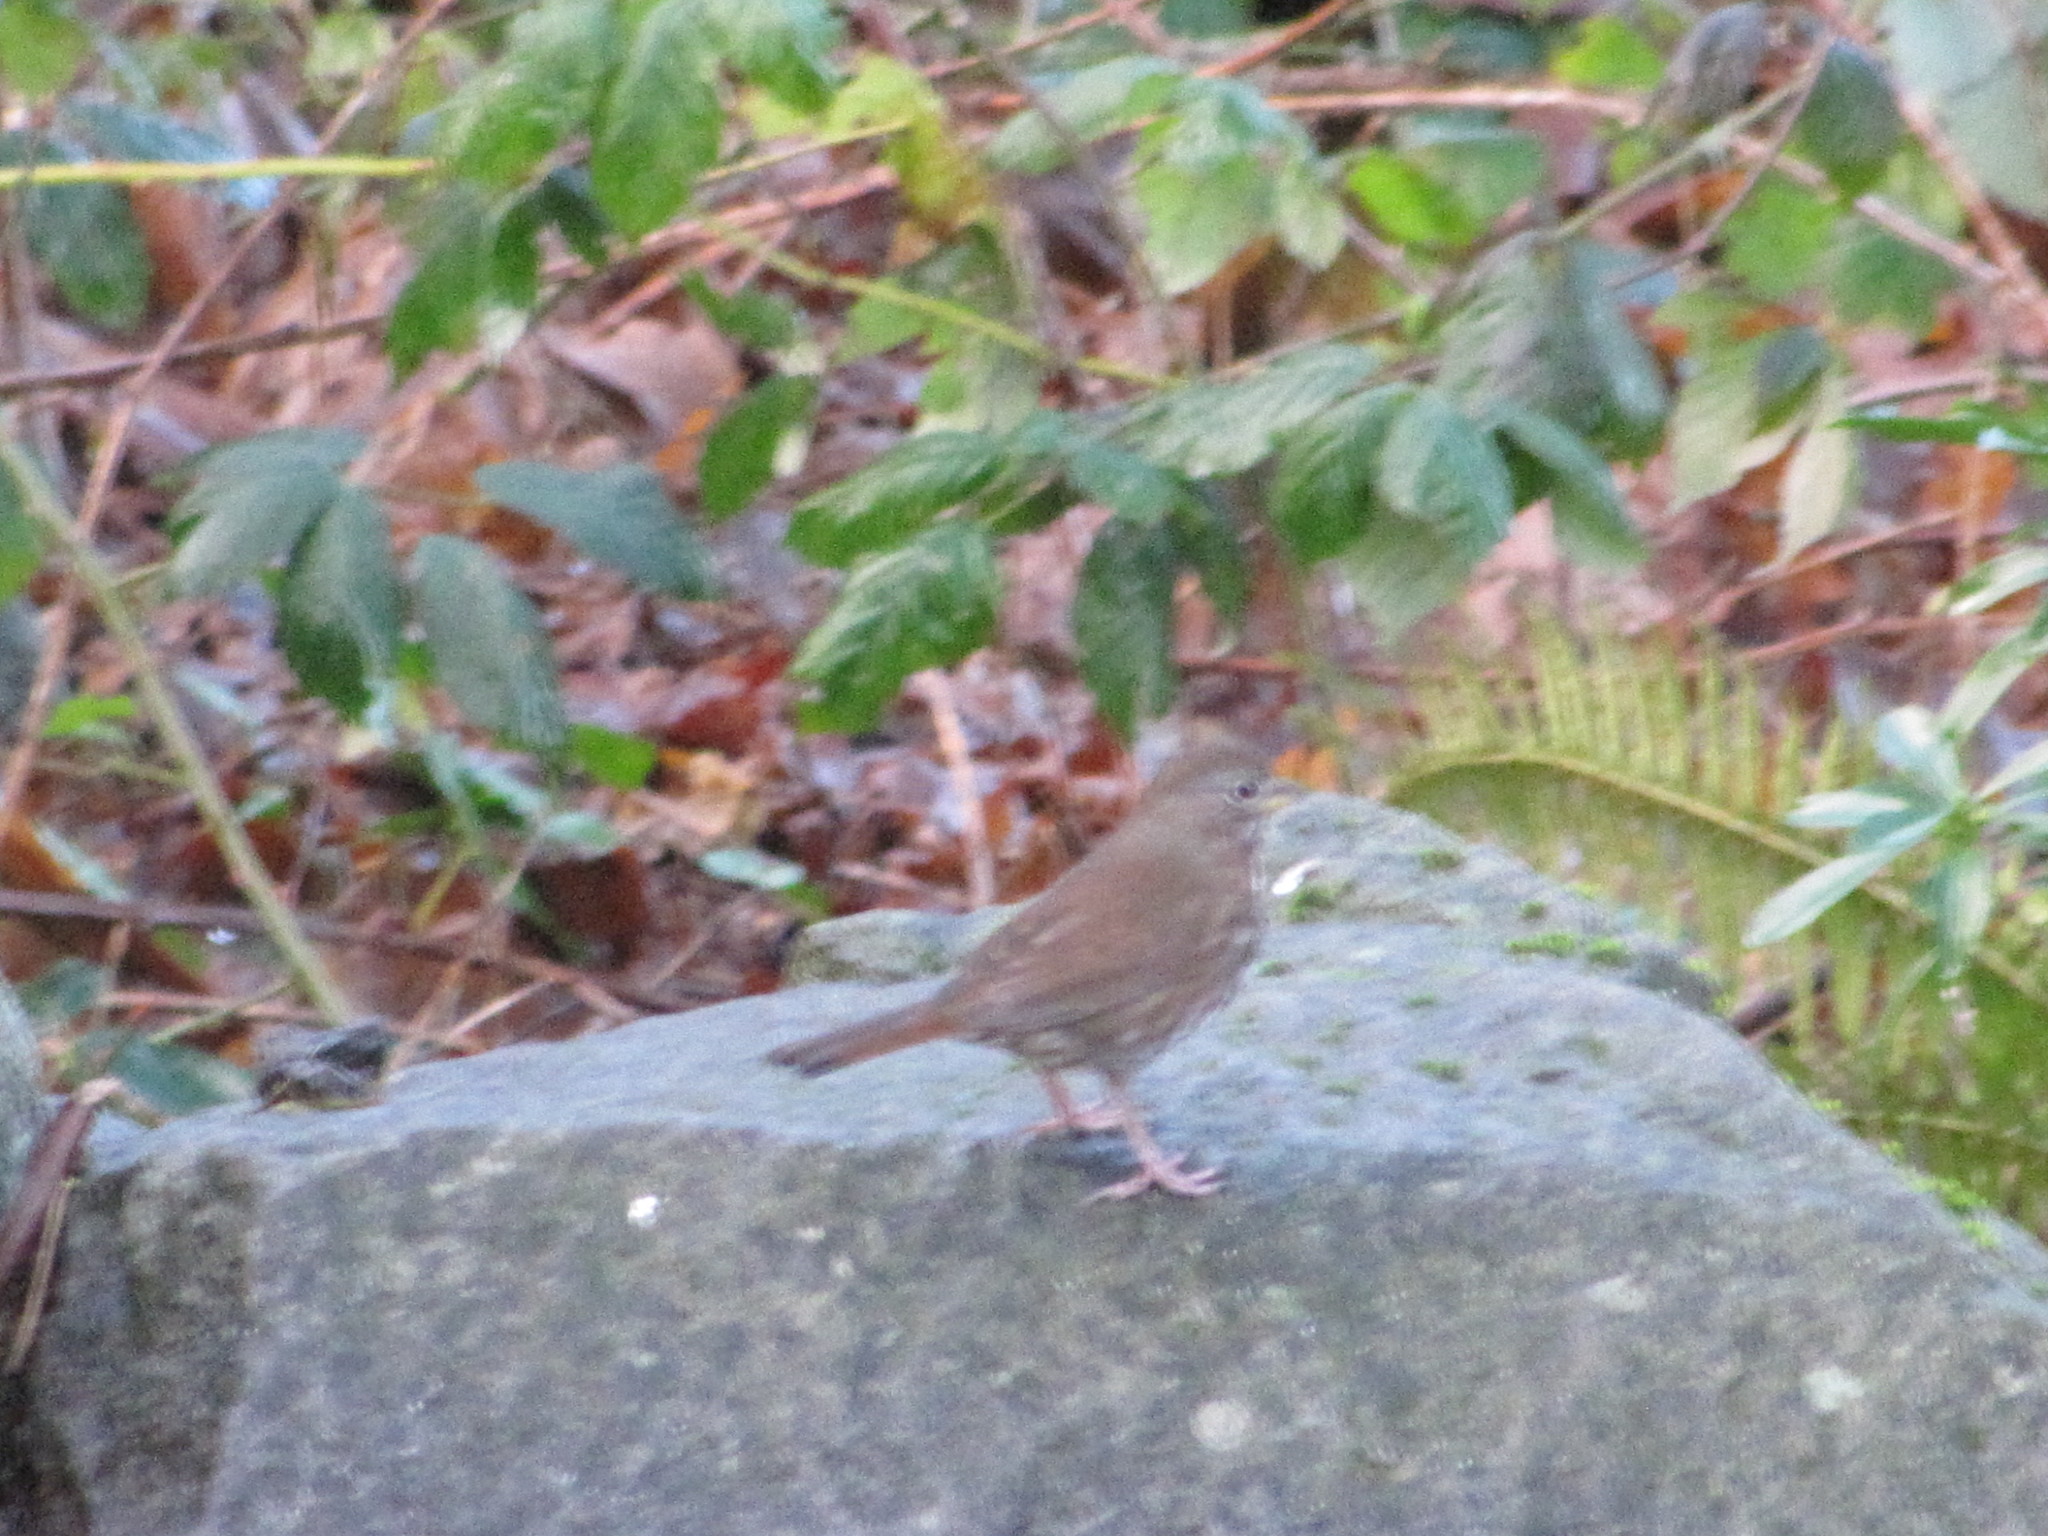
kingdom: Animalia
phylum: Chordata
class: Aves
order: Passeriformes
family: Passerellidae
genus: Passerella
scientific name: Passerella iliaca
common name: Fox sparrow
